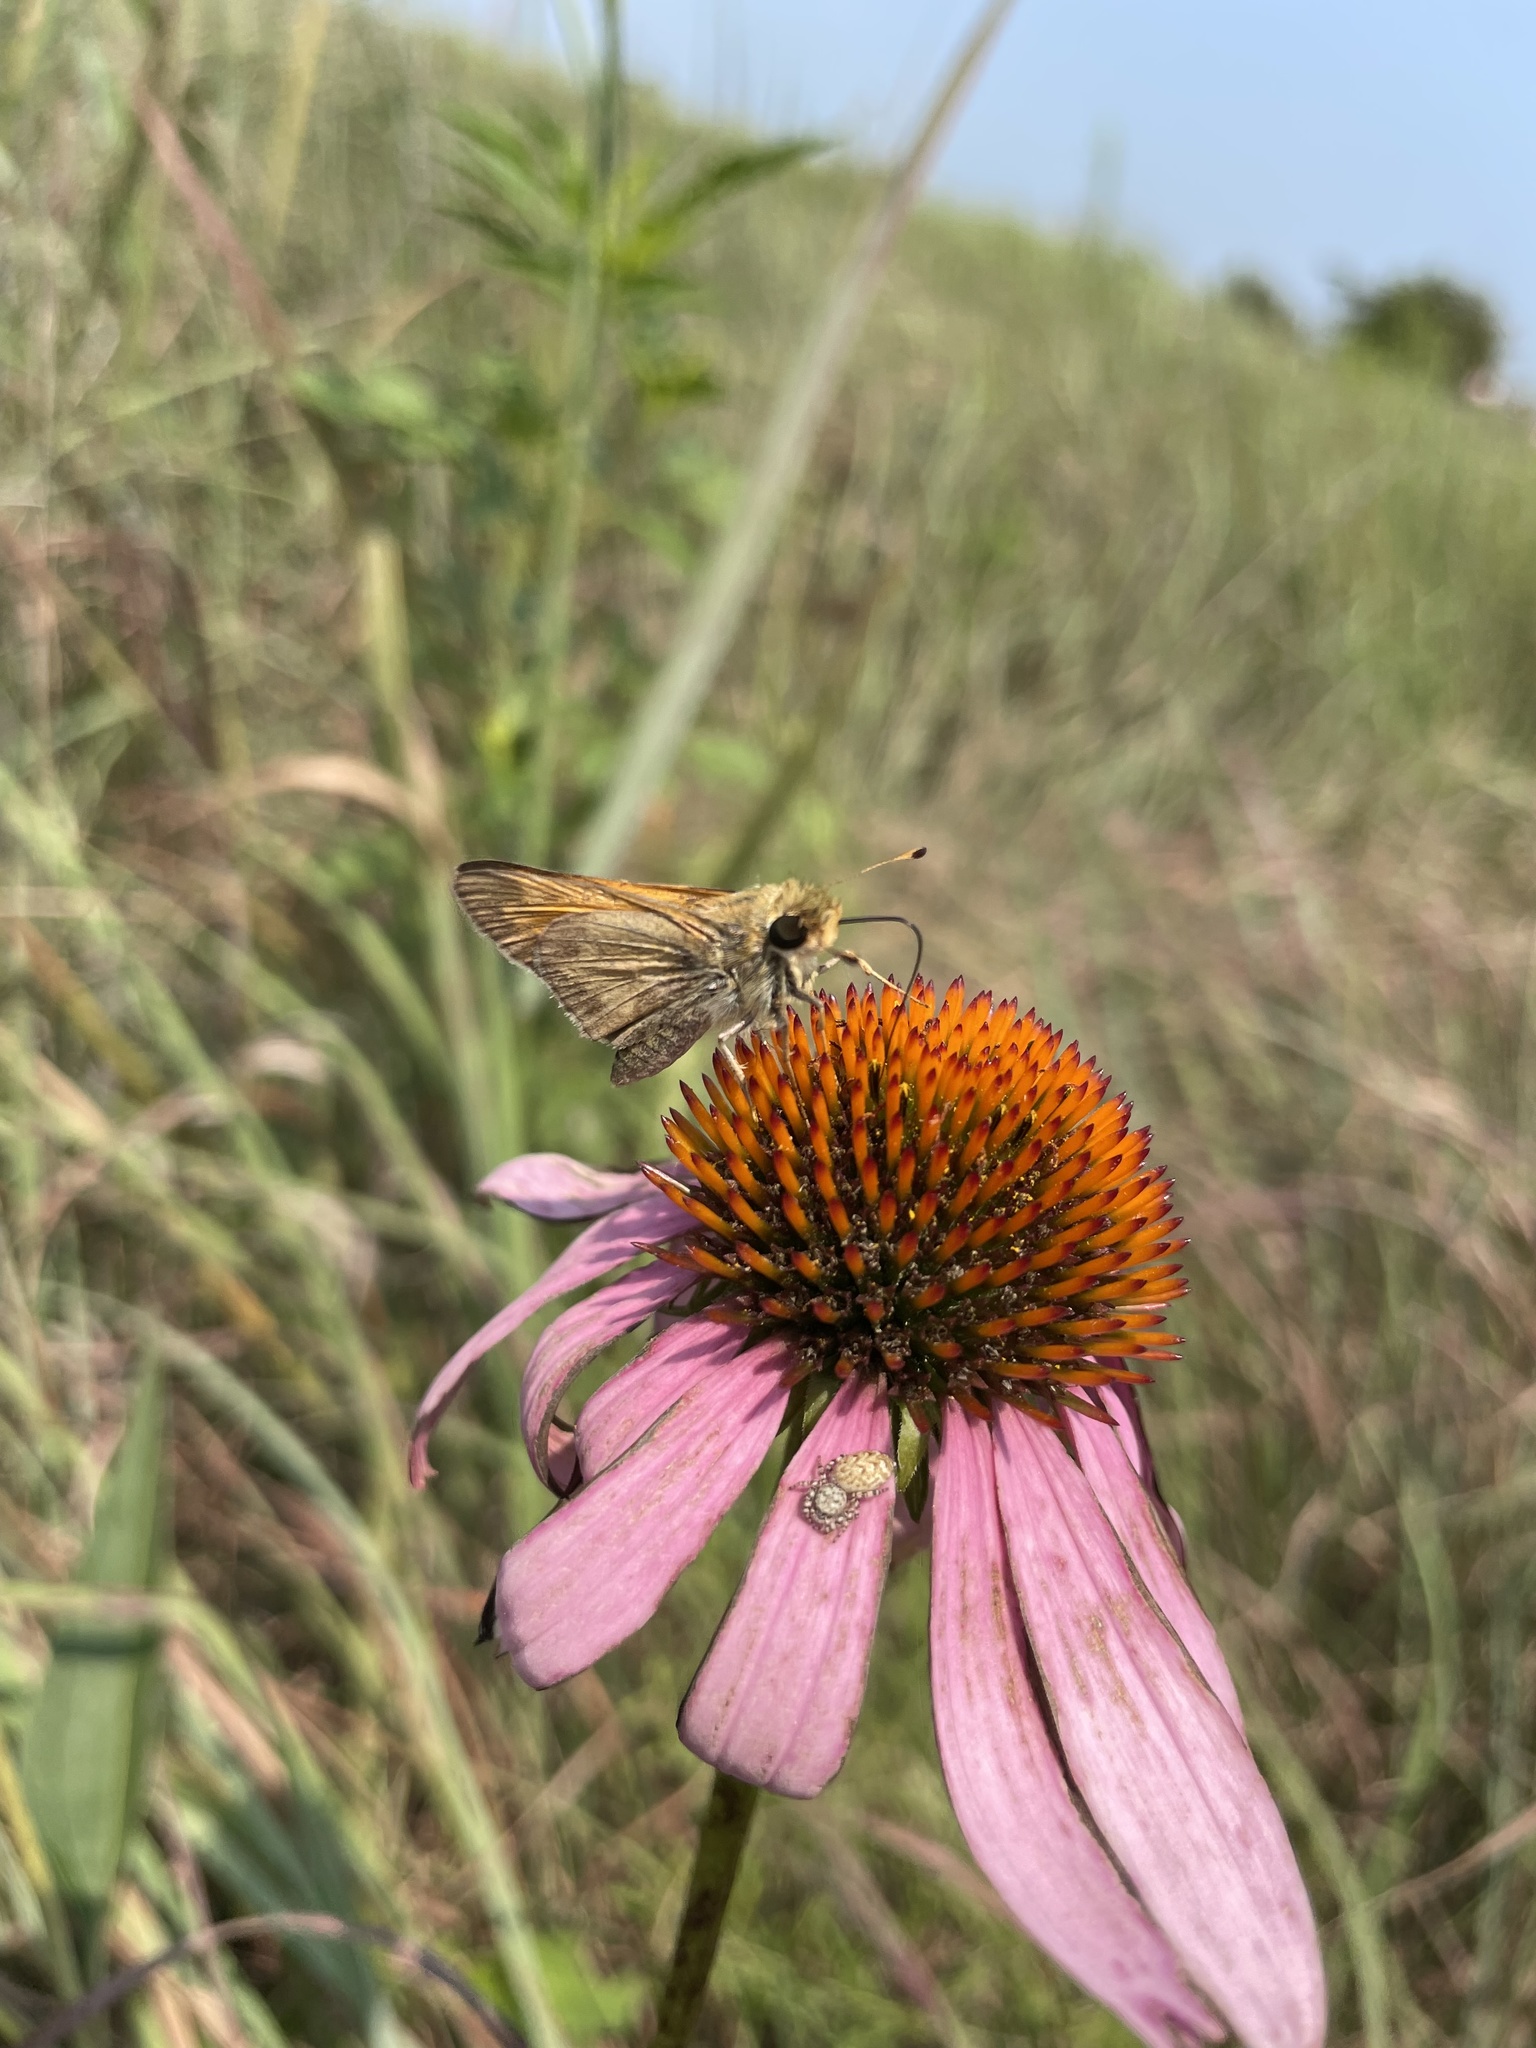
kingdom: Animalia
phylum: Arthropoda
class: Insecta
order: Lepidoptera
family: Hesperiidae
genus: Atalopedes
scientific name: Atalopedes
